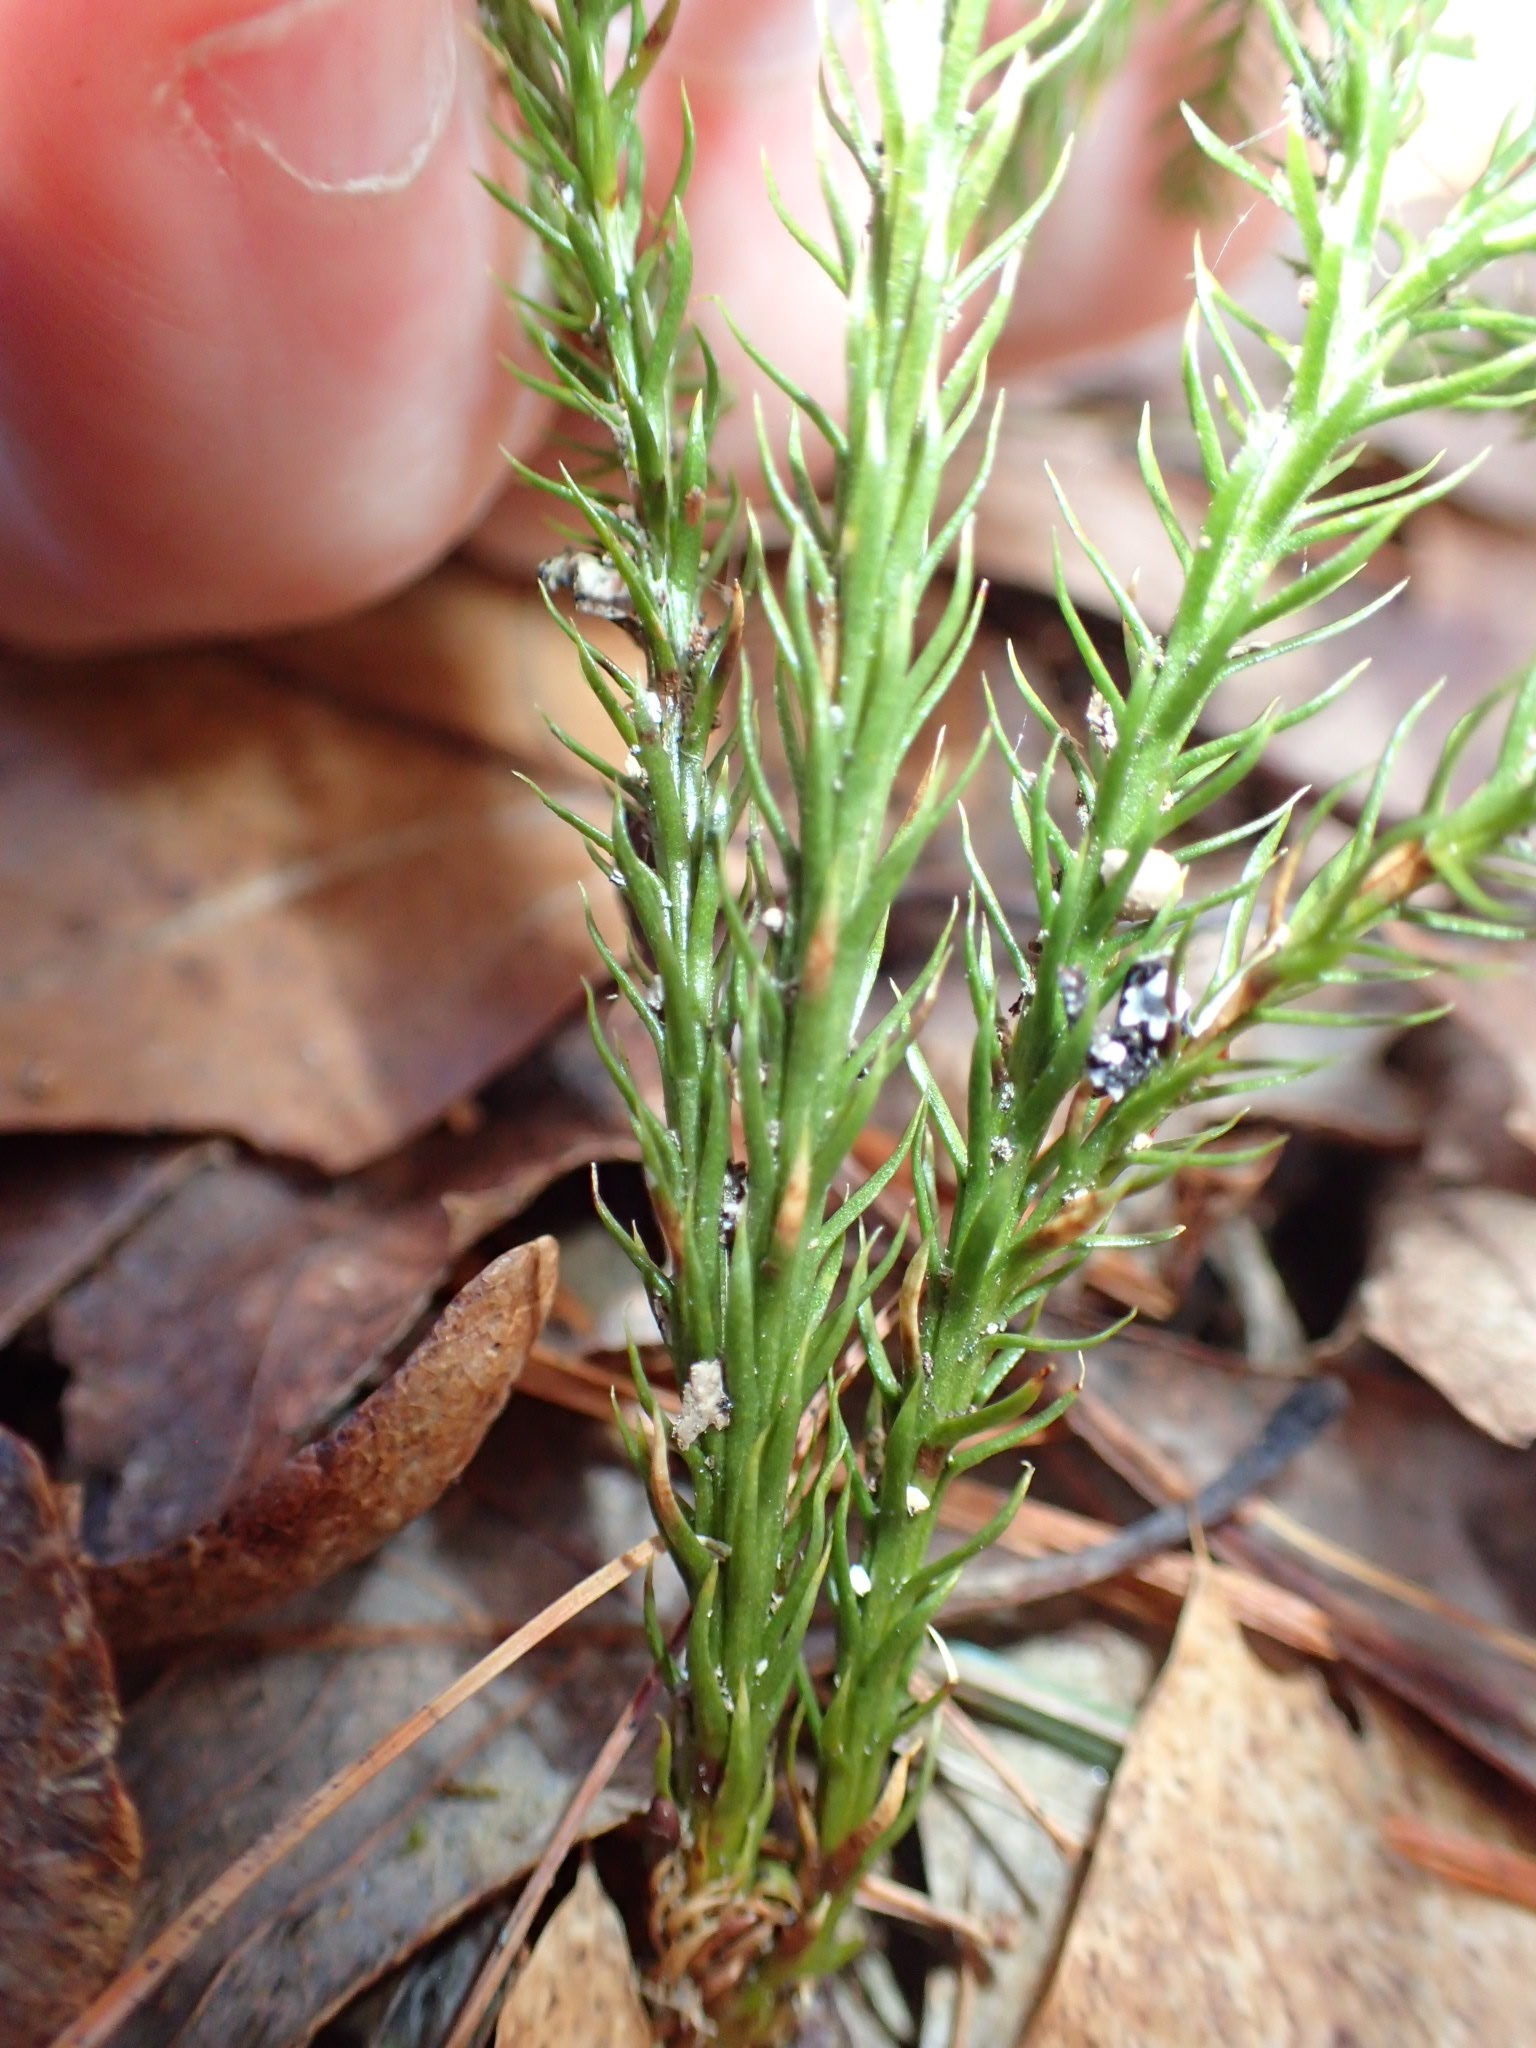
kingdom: Plantae
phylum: Tracheophyta
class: Lycopodiopsida
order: Lycopodiales
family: Lycopodiaceae
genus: Dendrolycopodium
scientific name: Dendrolycopodium obscurum
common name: Common ground-pine
